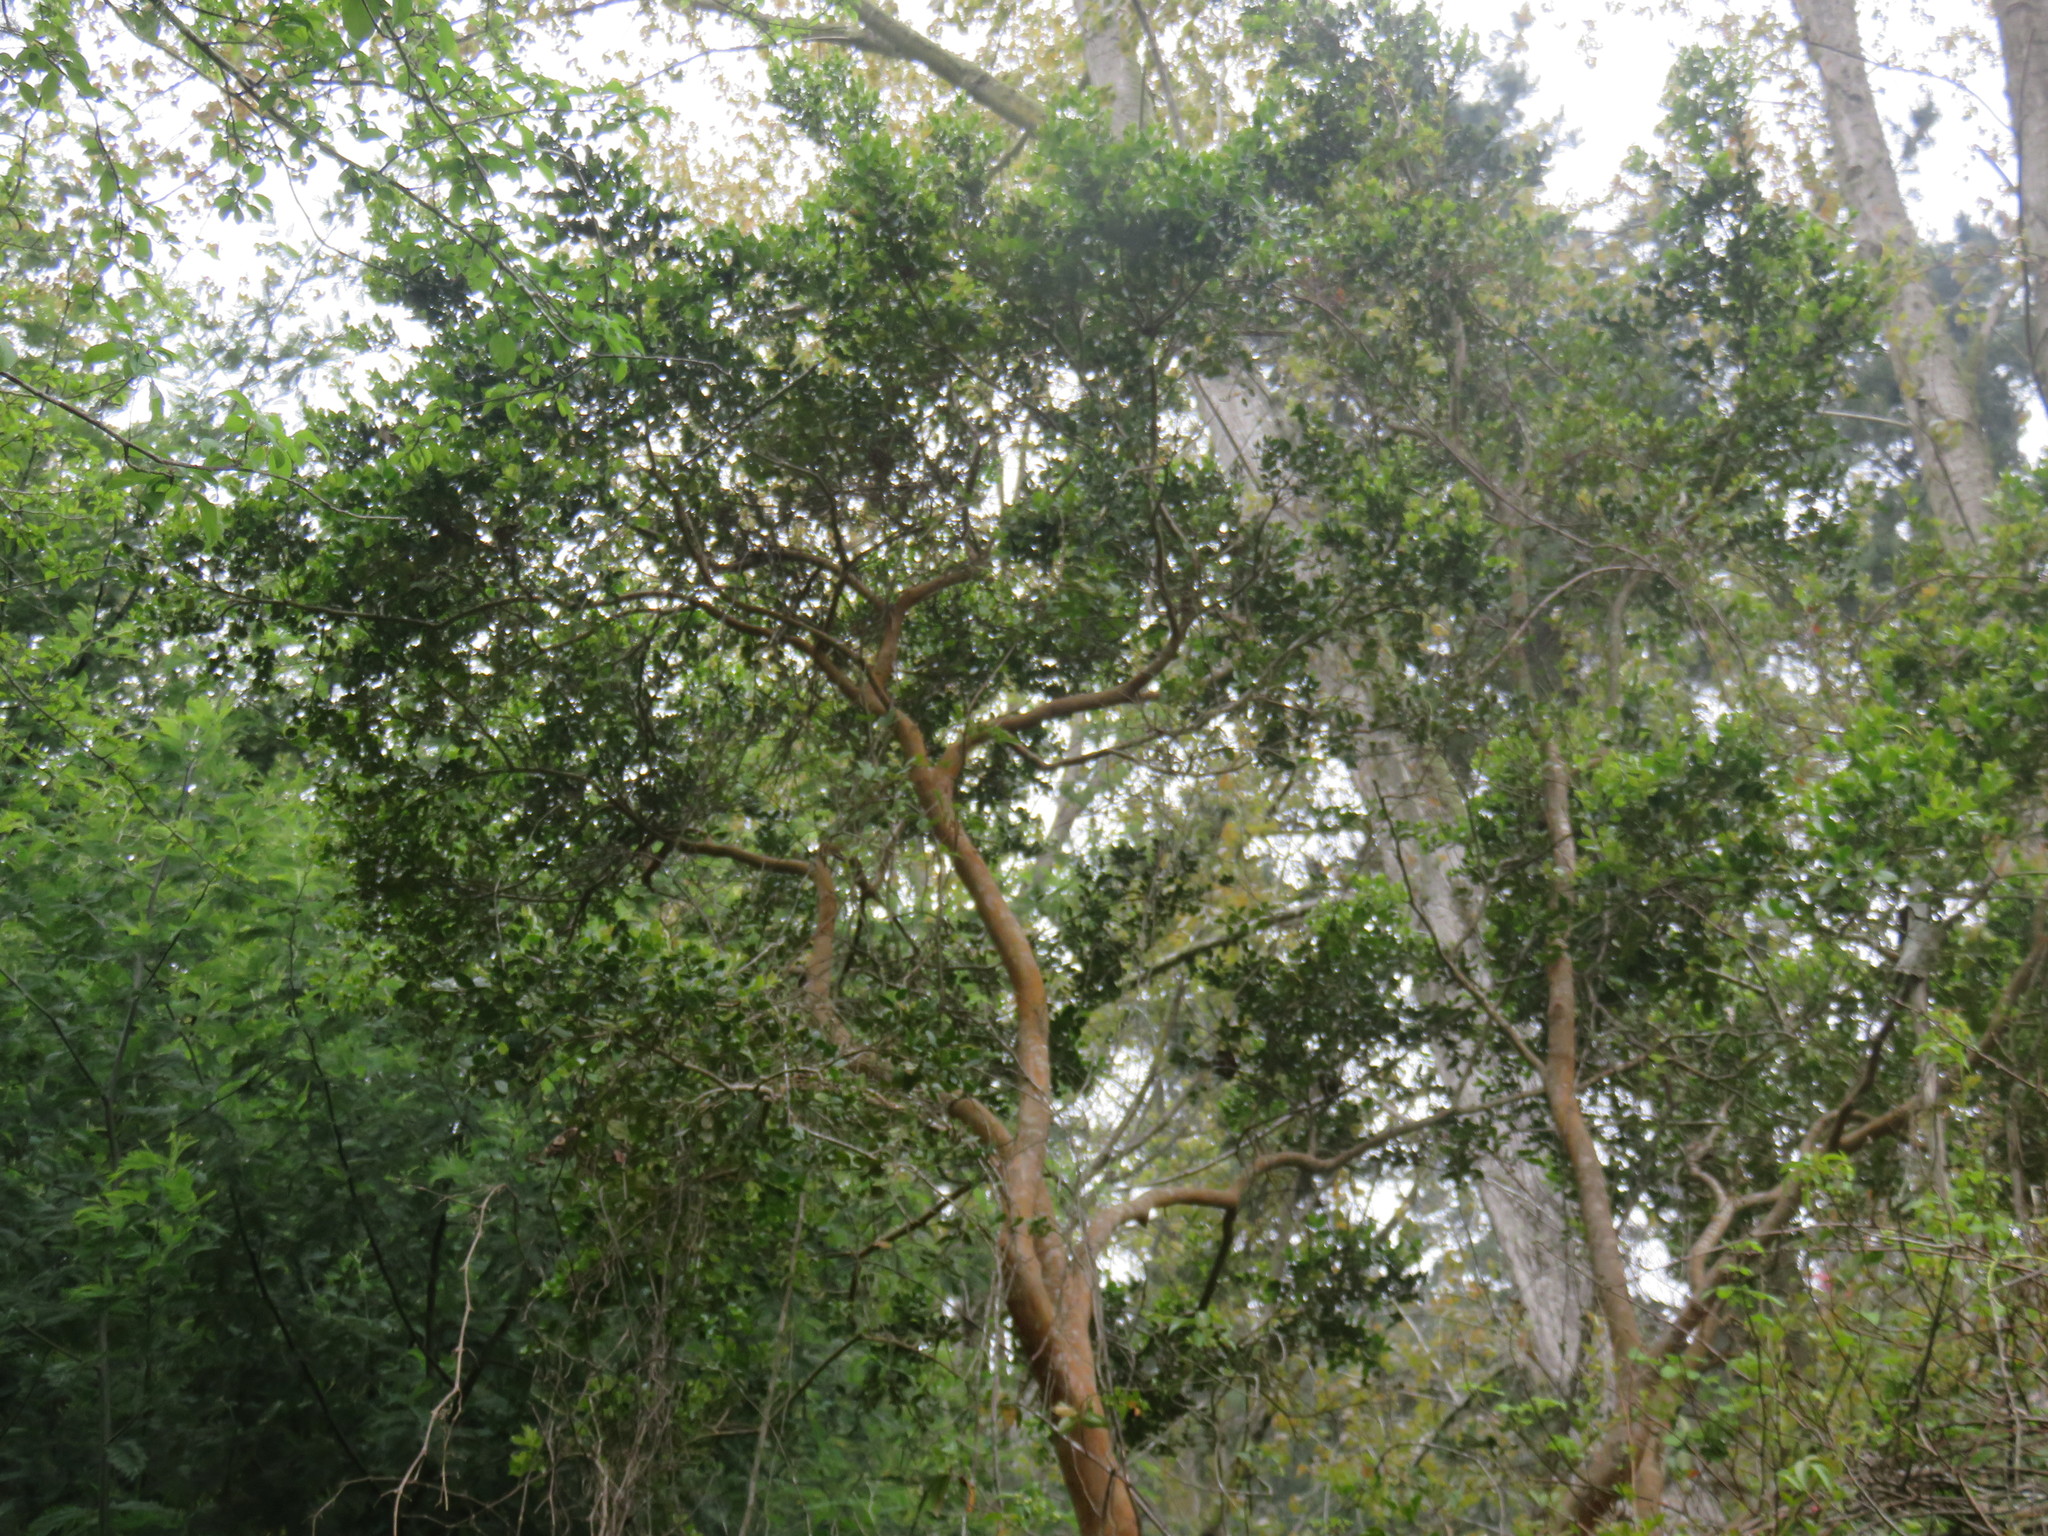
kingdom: Plantae
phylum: Tracheophyta
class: Magnoliopsida
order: Myrtales
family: Myrtaceae
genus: Luma
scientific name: Luma apiculata
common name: Chilean myrtle
